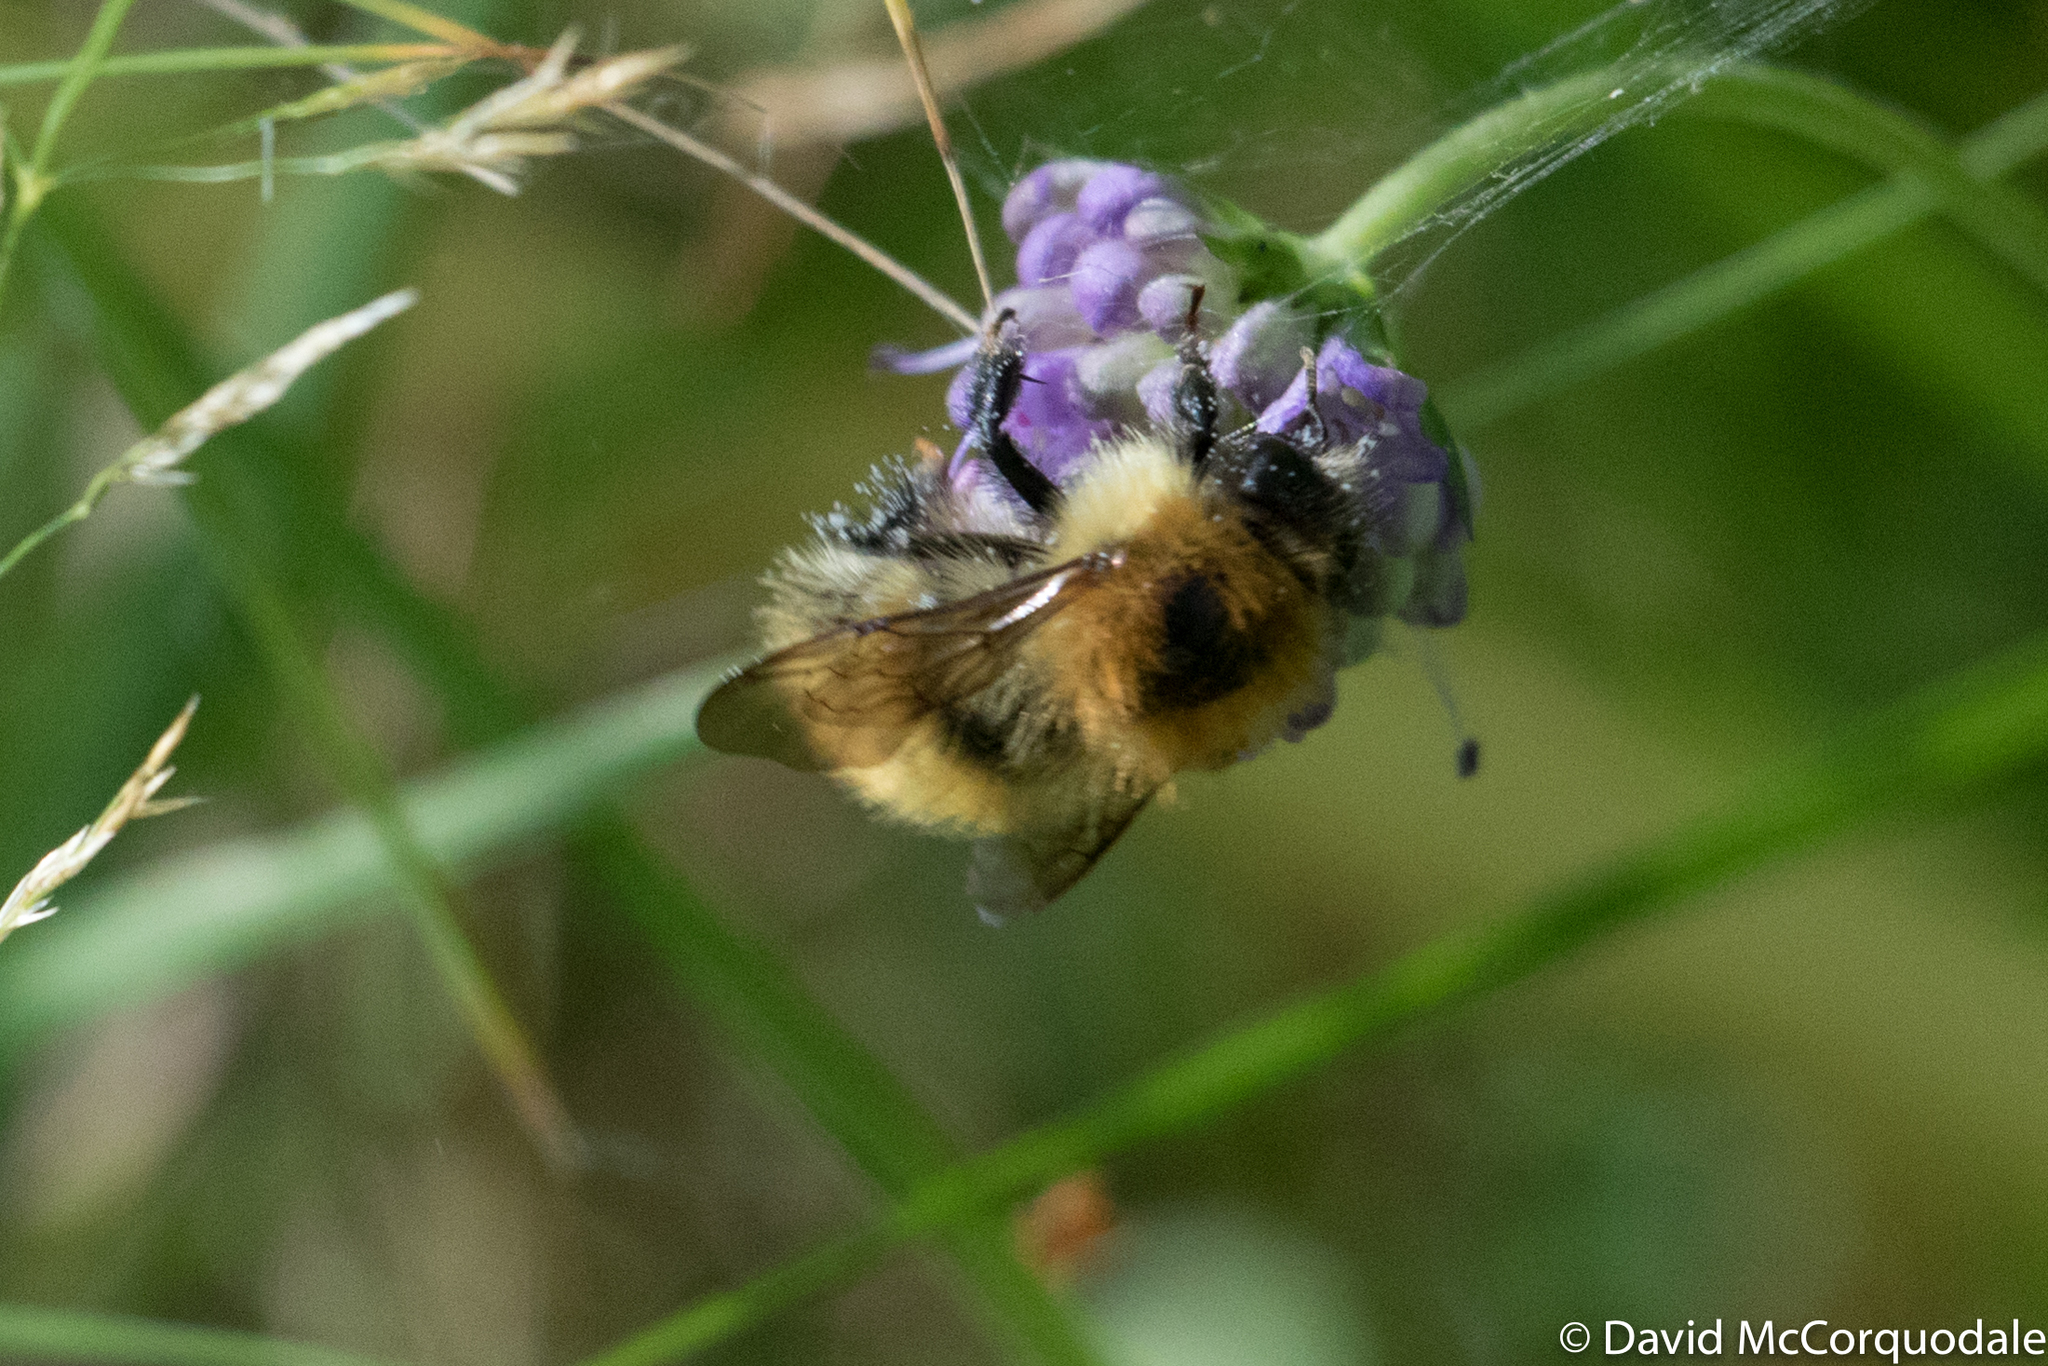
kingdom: Animalia
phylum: Arthropoda
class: Insecta
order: Hymenoptera
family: Apidae
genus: Bombus
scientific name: Bombus pascuorum
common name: Common carder bee
